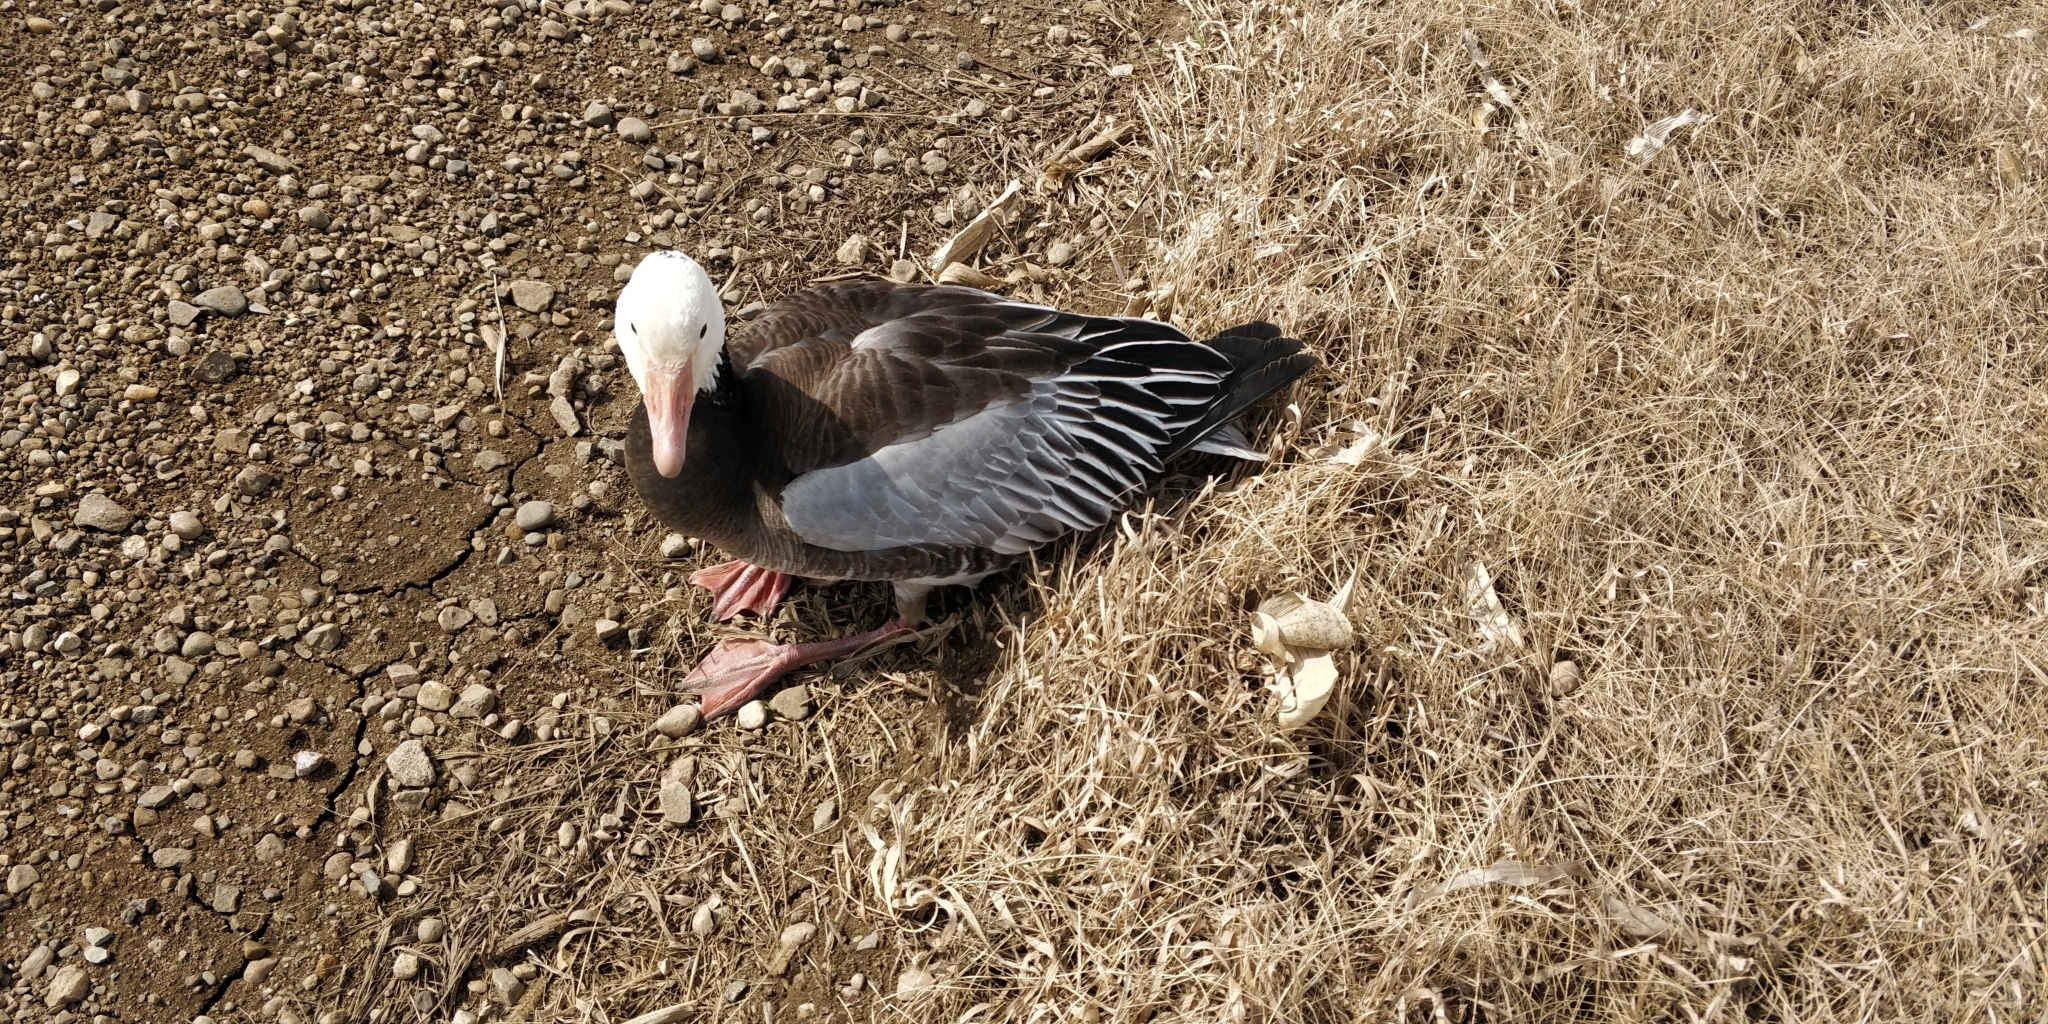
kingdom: Animalia
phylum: Chordata
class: Aves
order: Anseriformes
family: Anatidae
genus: Anser
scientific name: Anser caerulescens
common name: Snow goose
